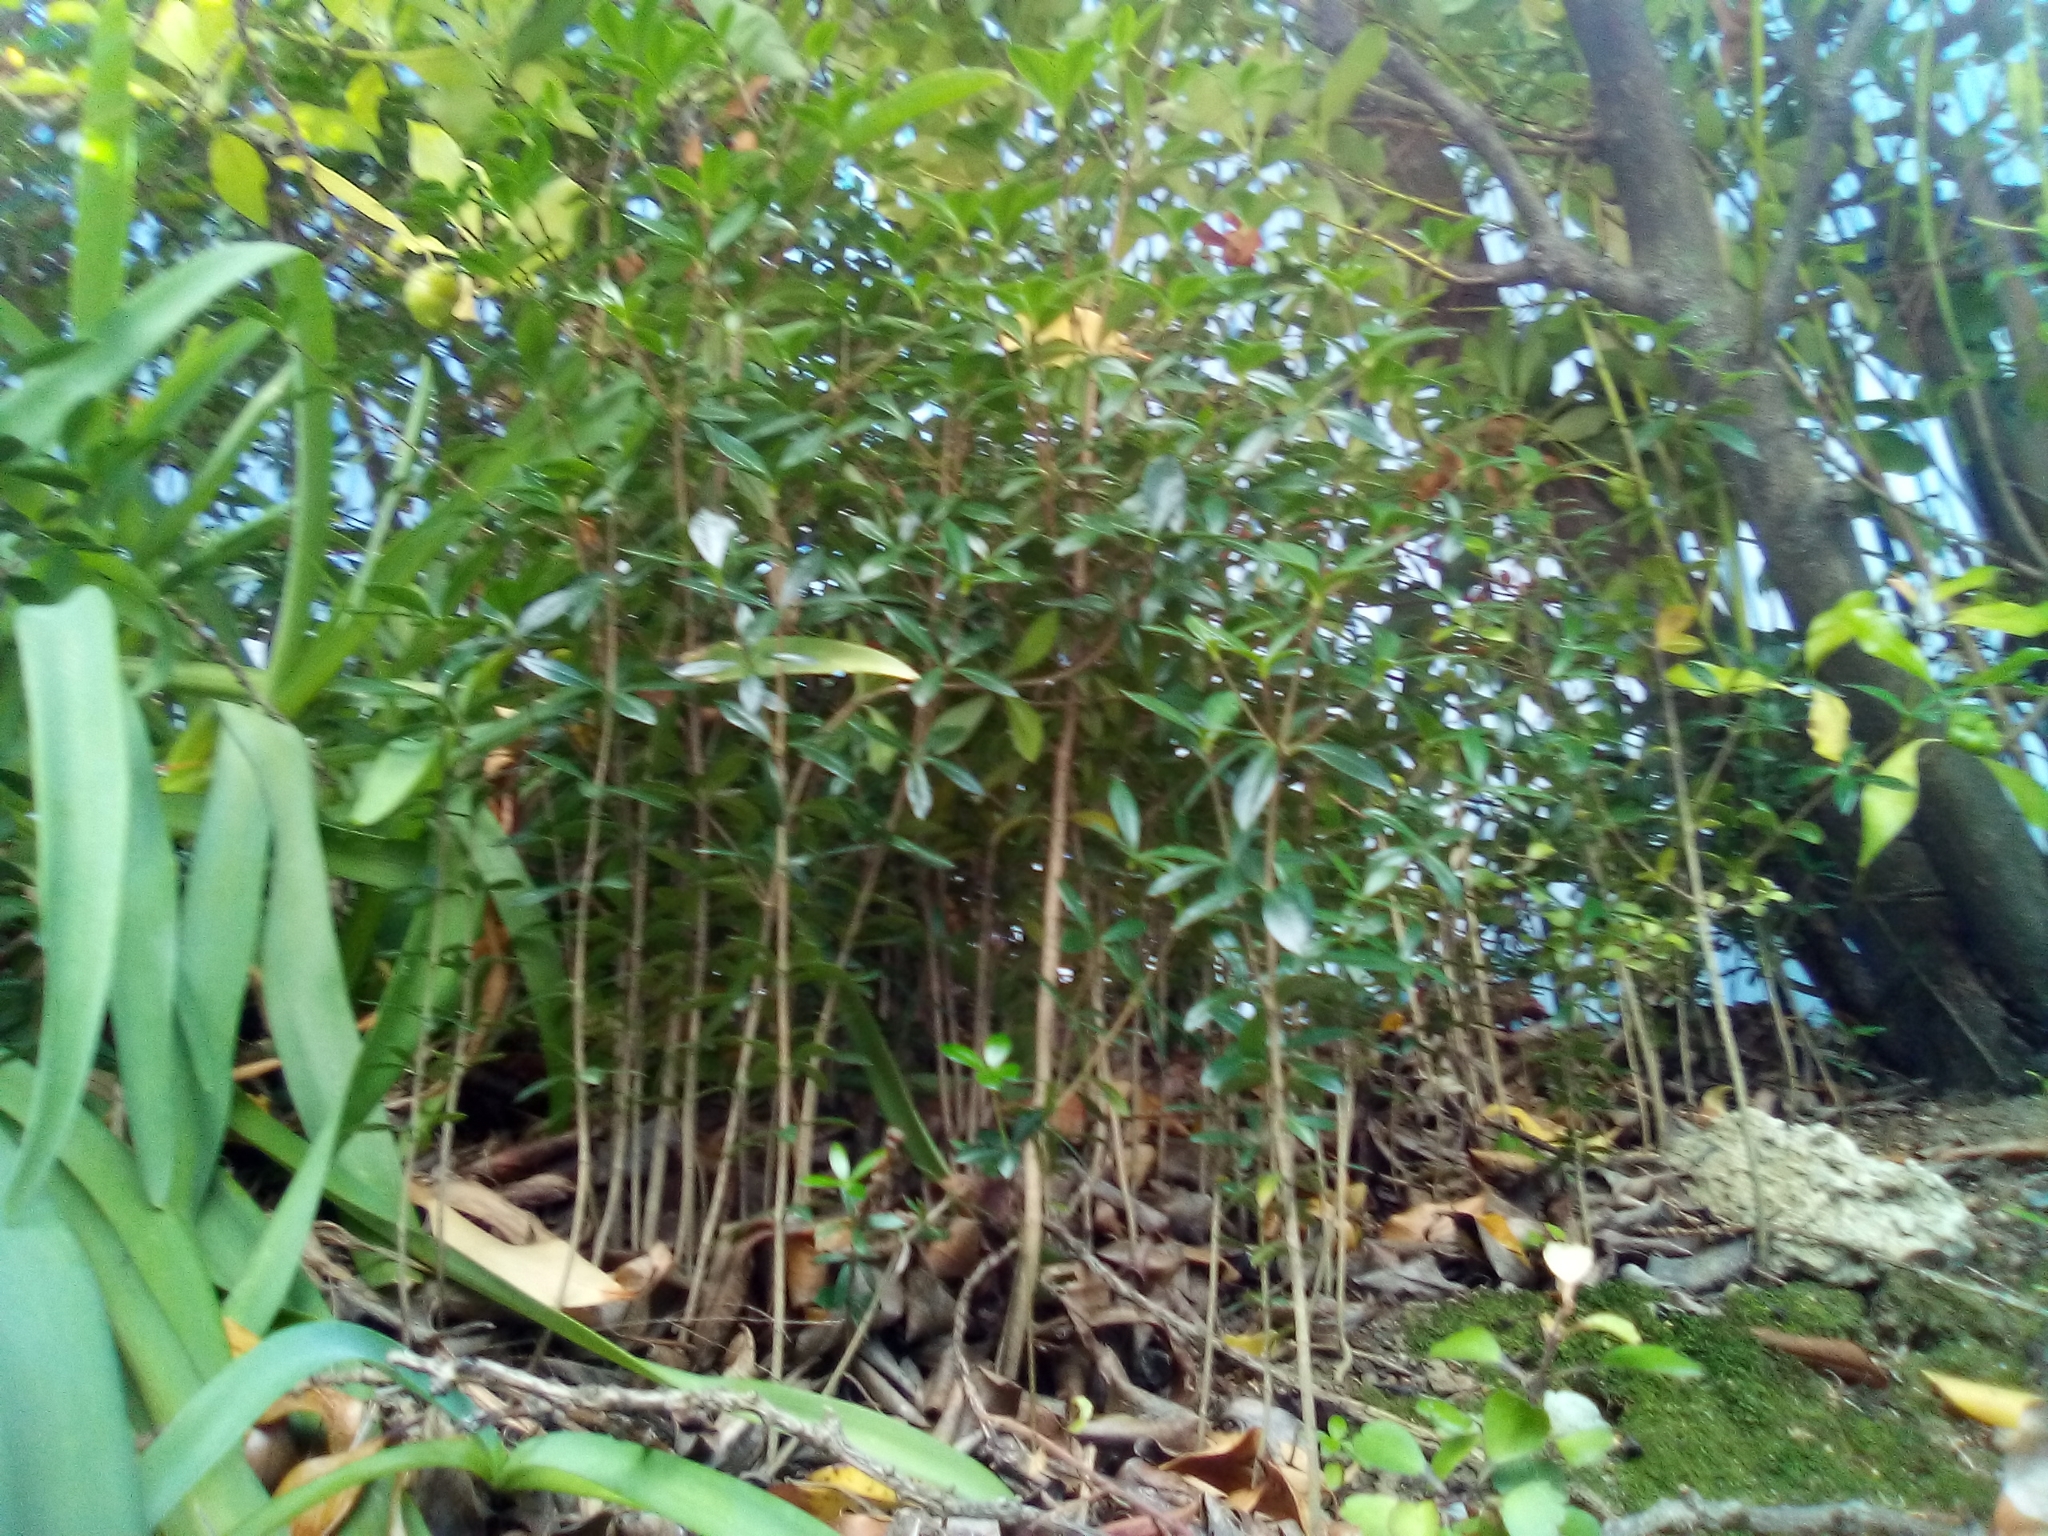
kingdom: Plantae
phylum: Tracheophyta
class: Magnoliopsida
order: Gentianales
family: Apocynaceae
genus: Alyxia
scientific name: Alyxia ruscifolia
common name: Chainfruit
